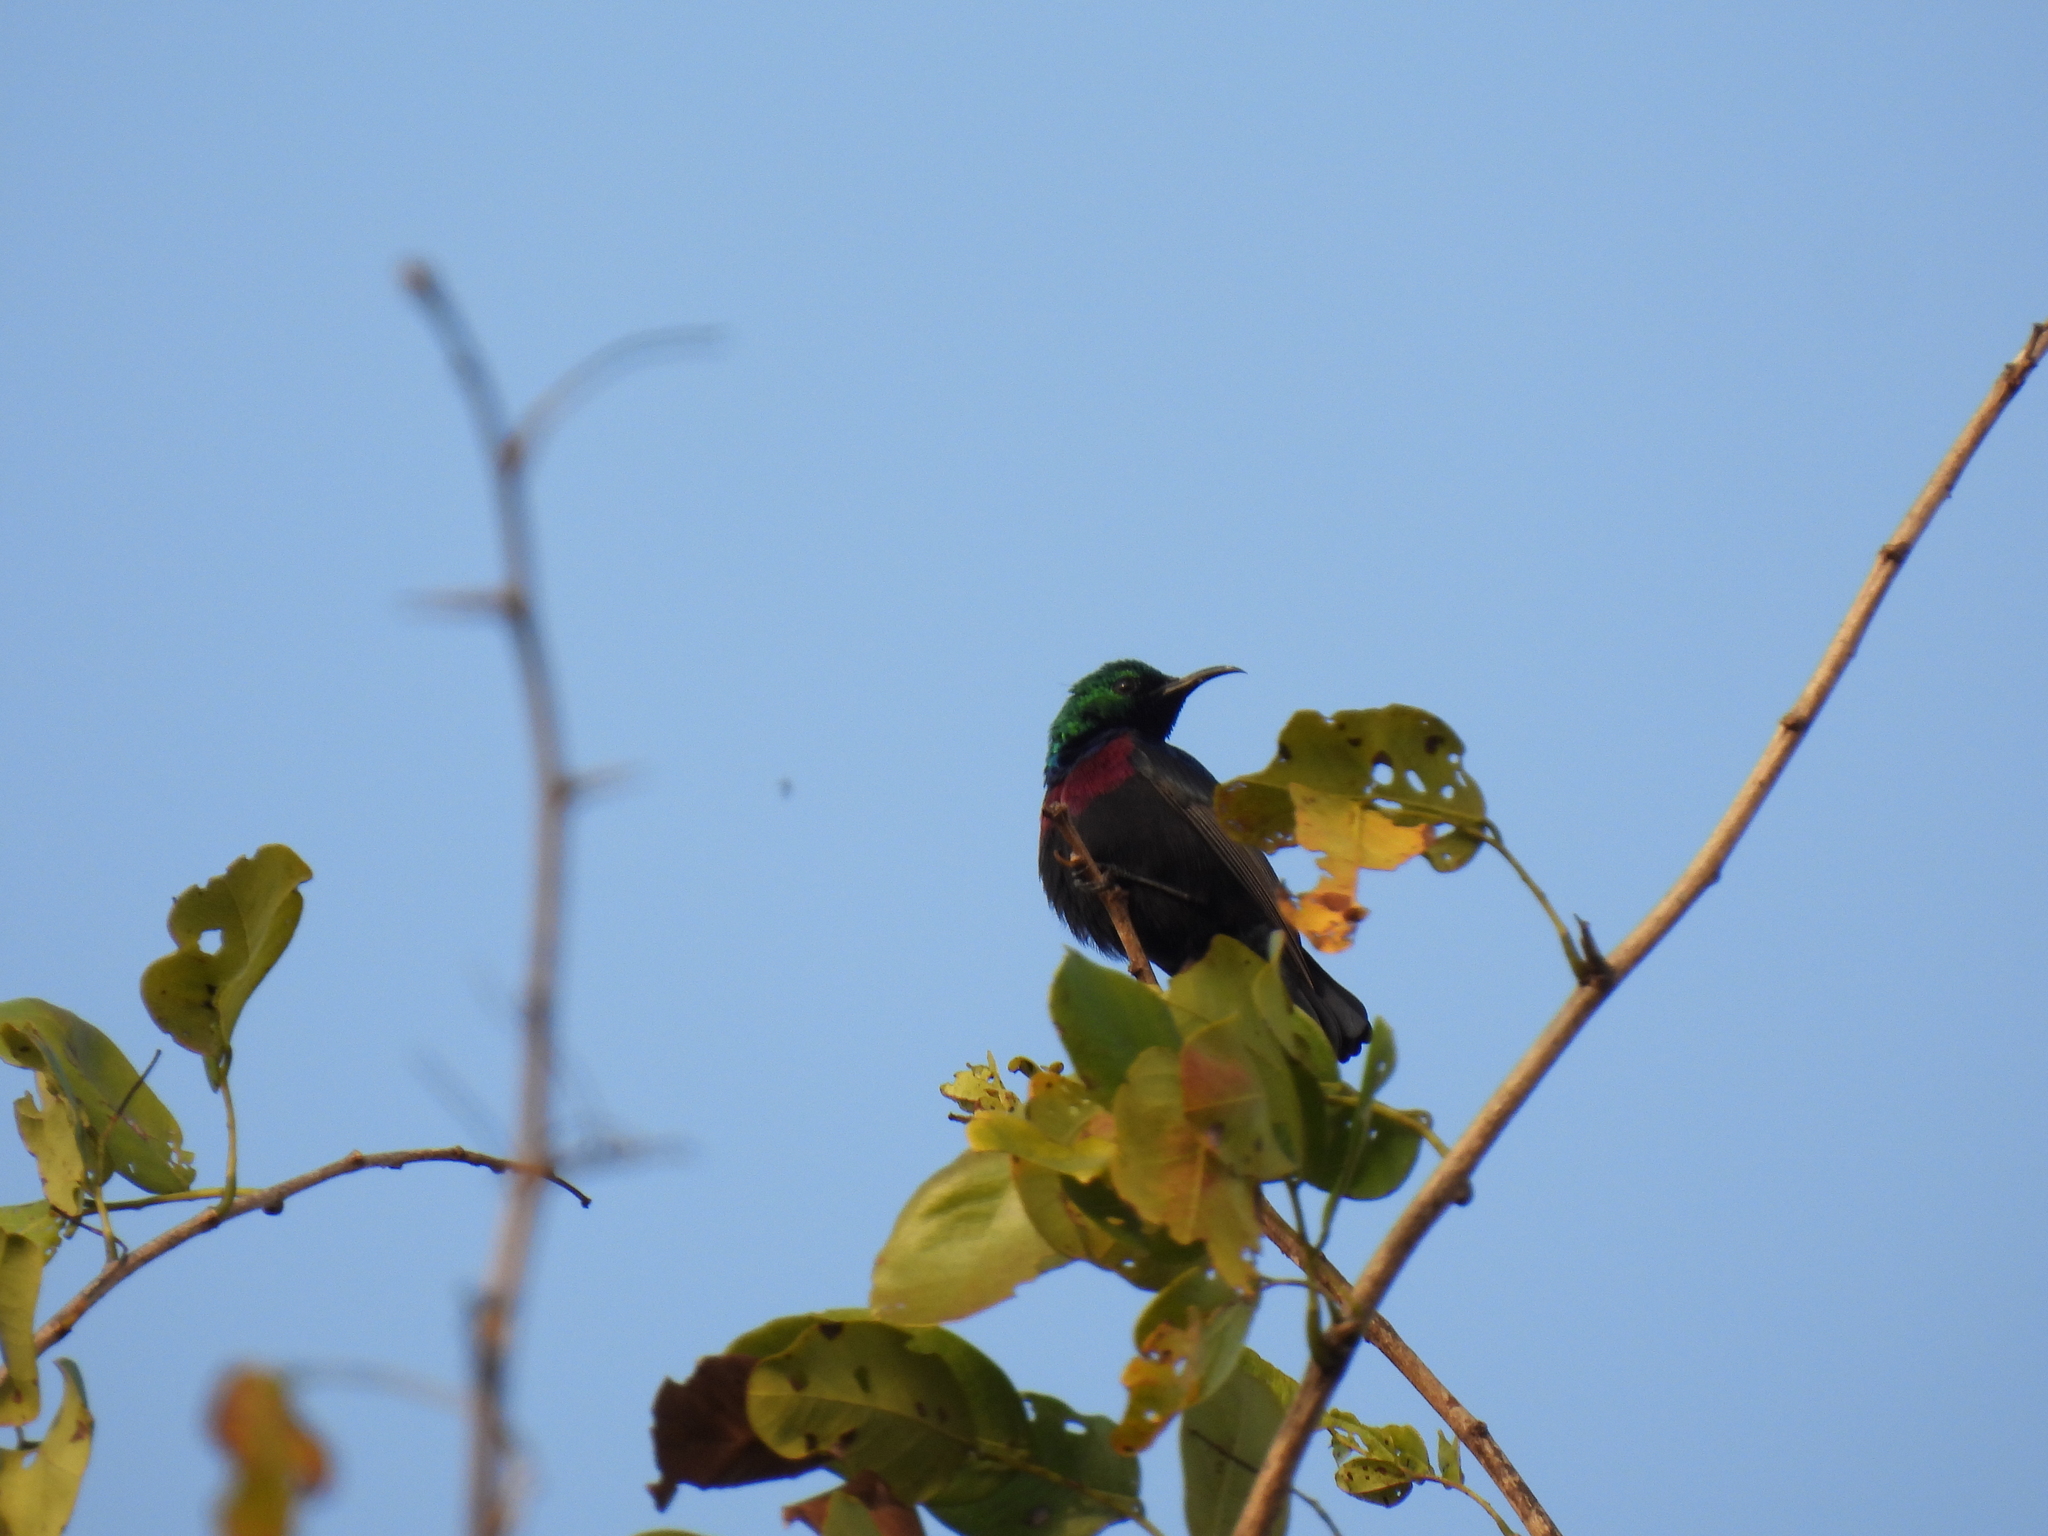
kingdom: Animalia
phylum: Chordata
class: Aves
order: Passeriformes
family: Nectariniidae
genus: Cinnyris
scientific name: Cinnyris bifasciatus
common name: Purple-banded sunbird
